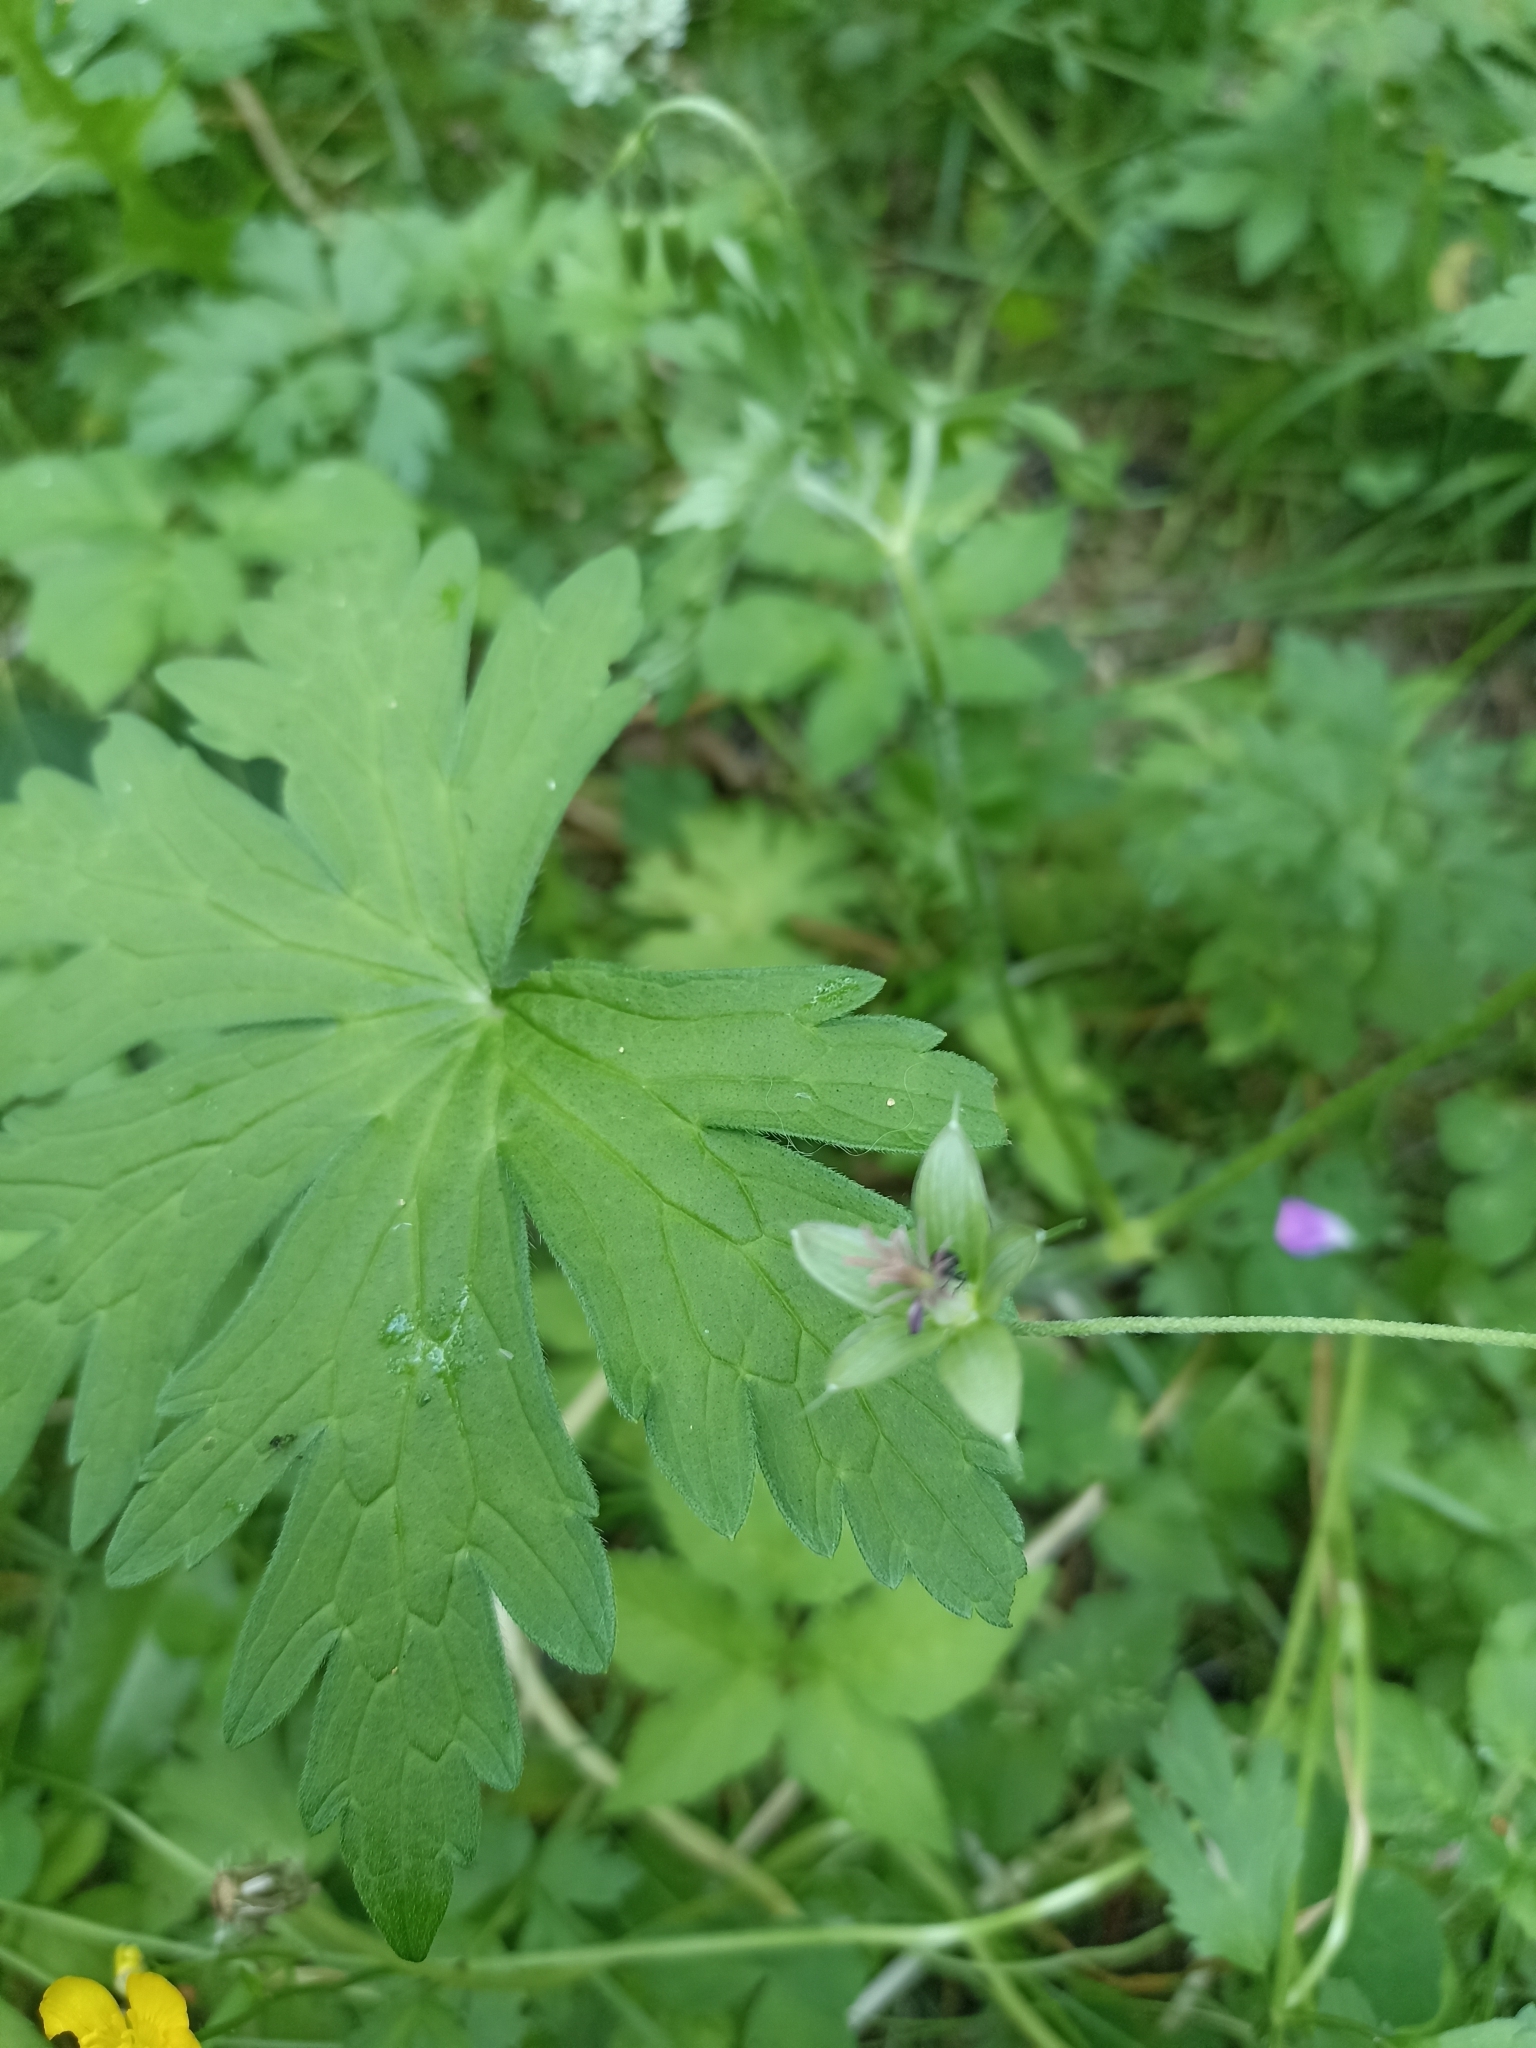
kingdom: Plantae
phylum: Tracheophyta
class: Magnoliopsida
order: Geraniales
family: Geraniaceae
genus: Geranium
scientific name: Geranium palustre
